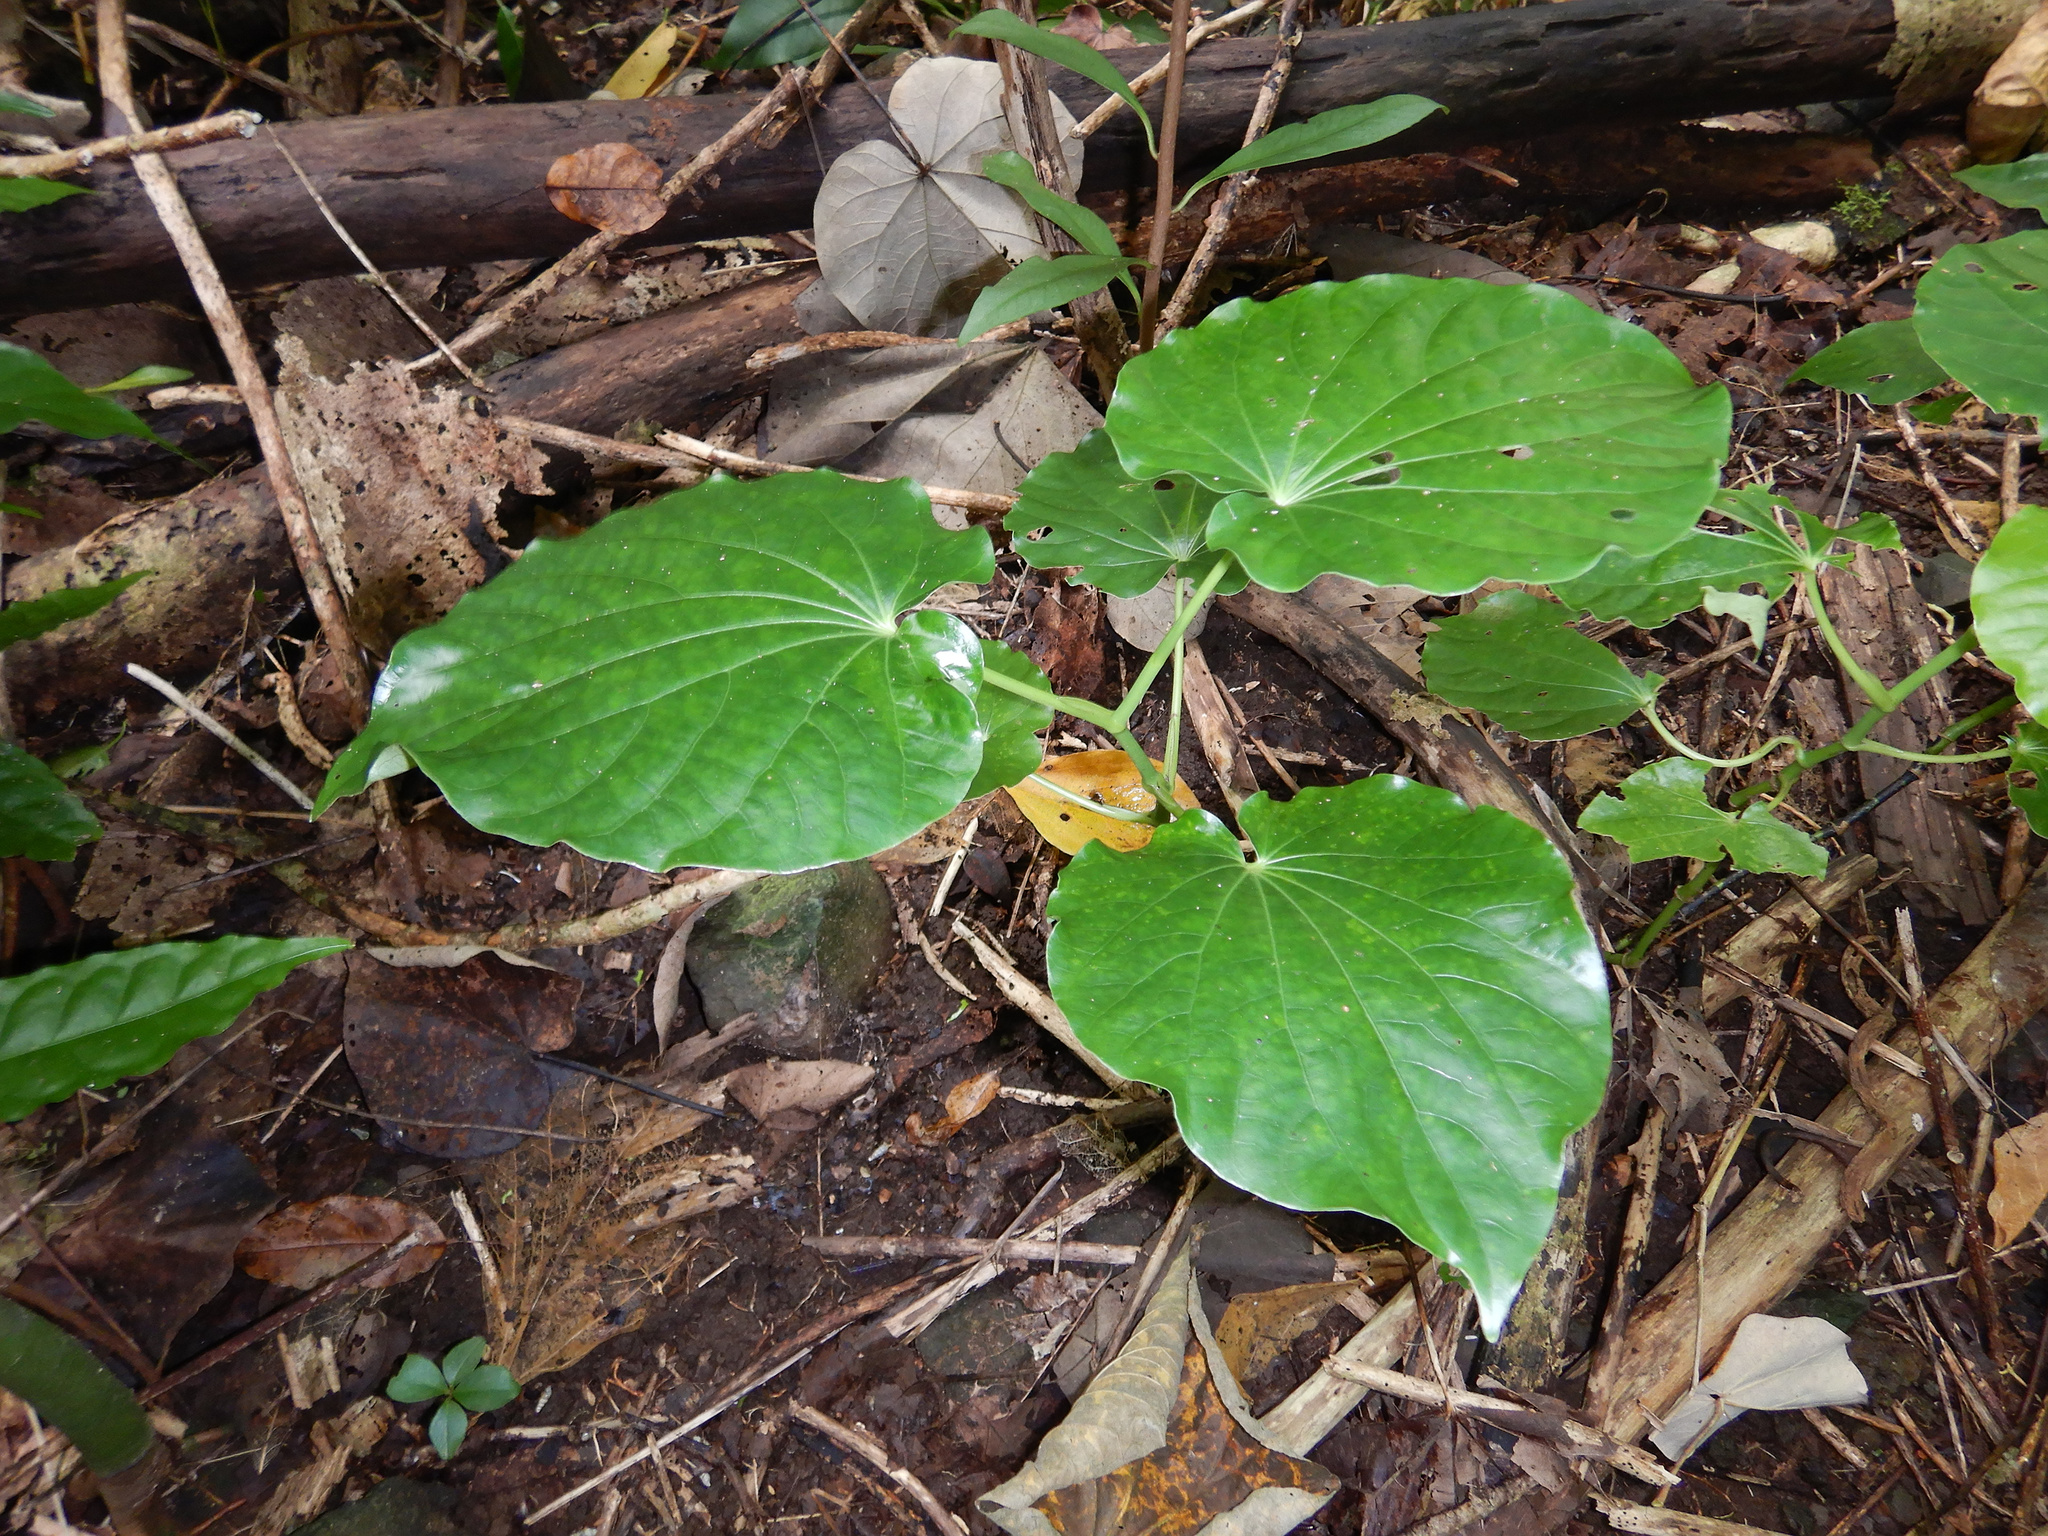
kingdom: Plantae
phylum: Tracheophyta
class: Magnoliopsida
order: Piperales
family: Piperaceae
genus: Piper
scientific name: Piper latifolium
